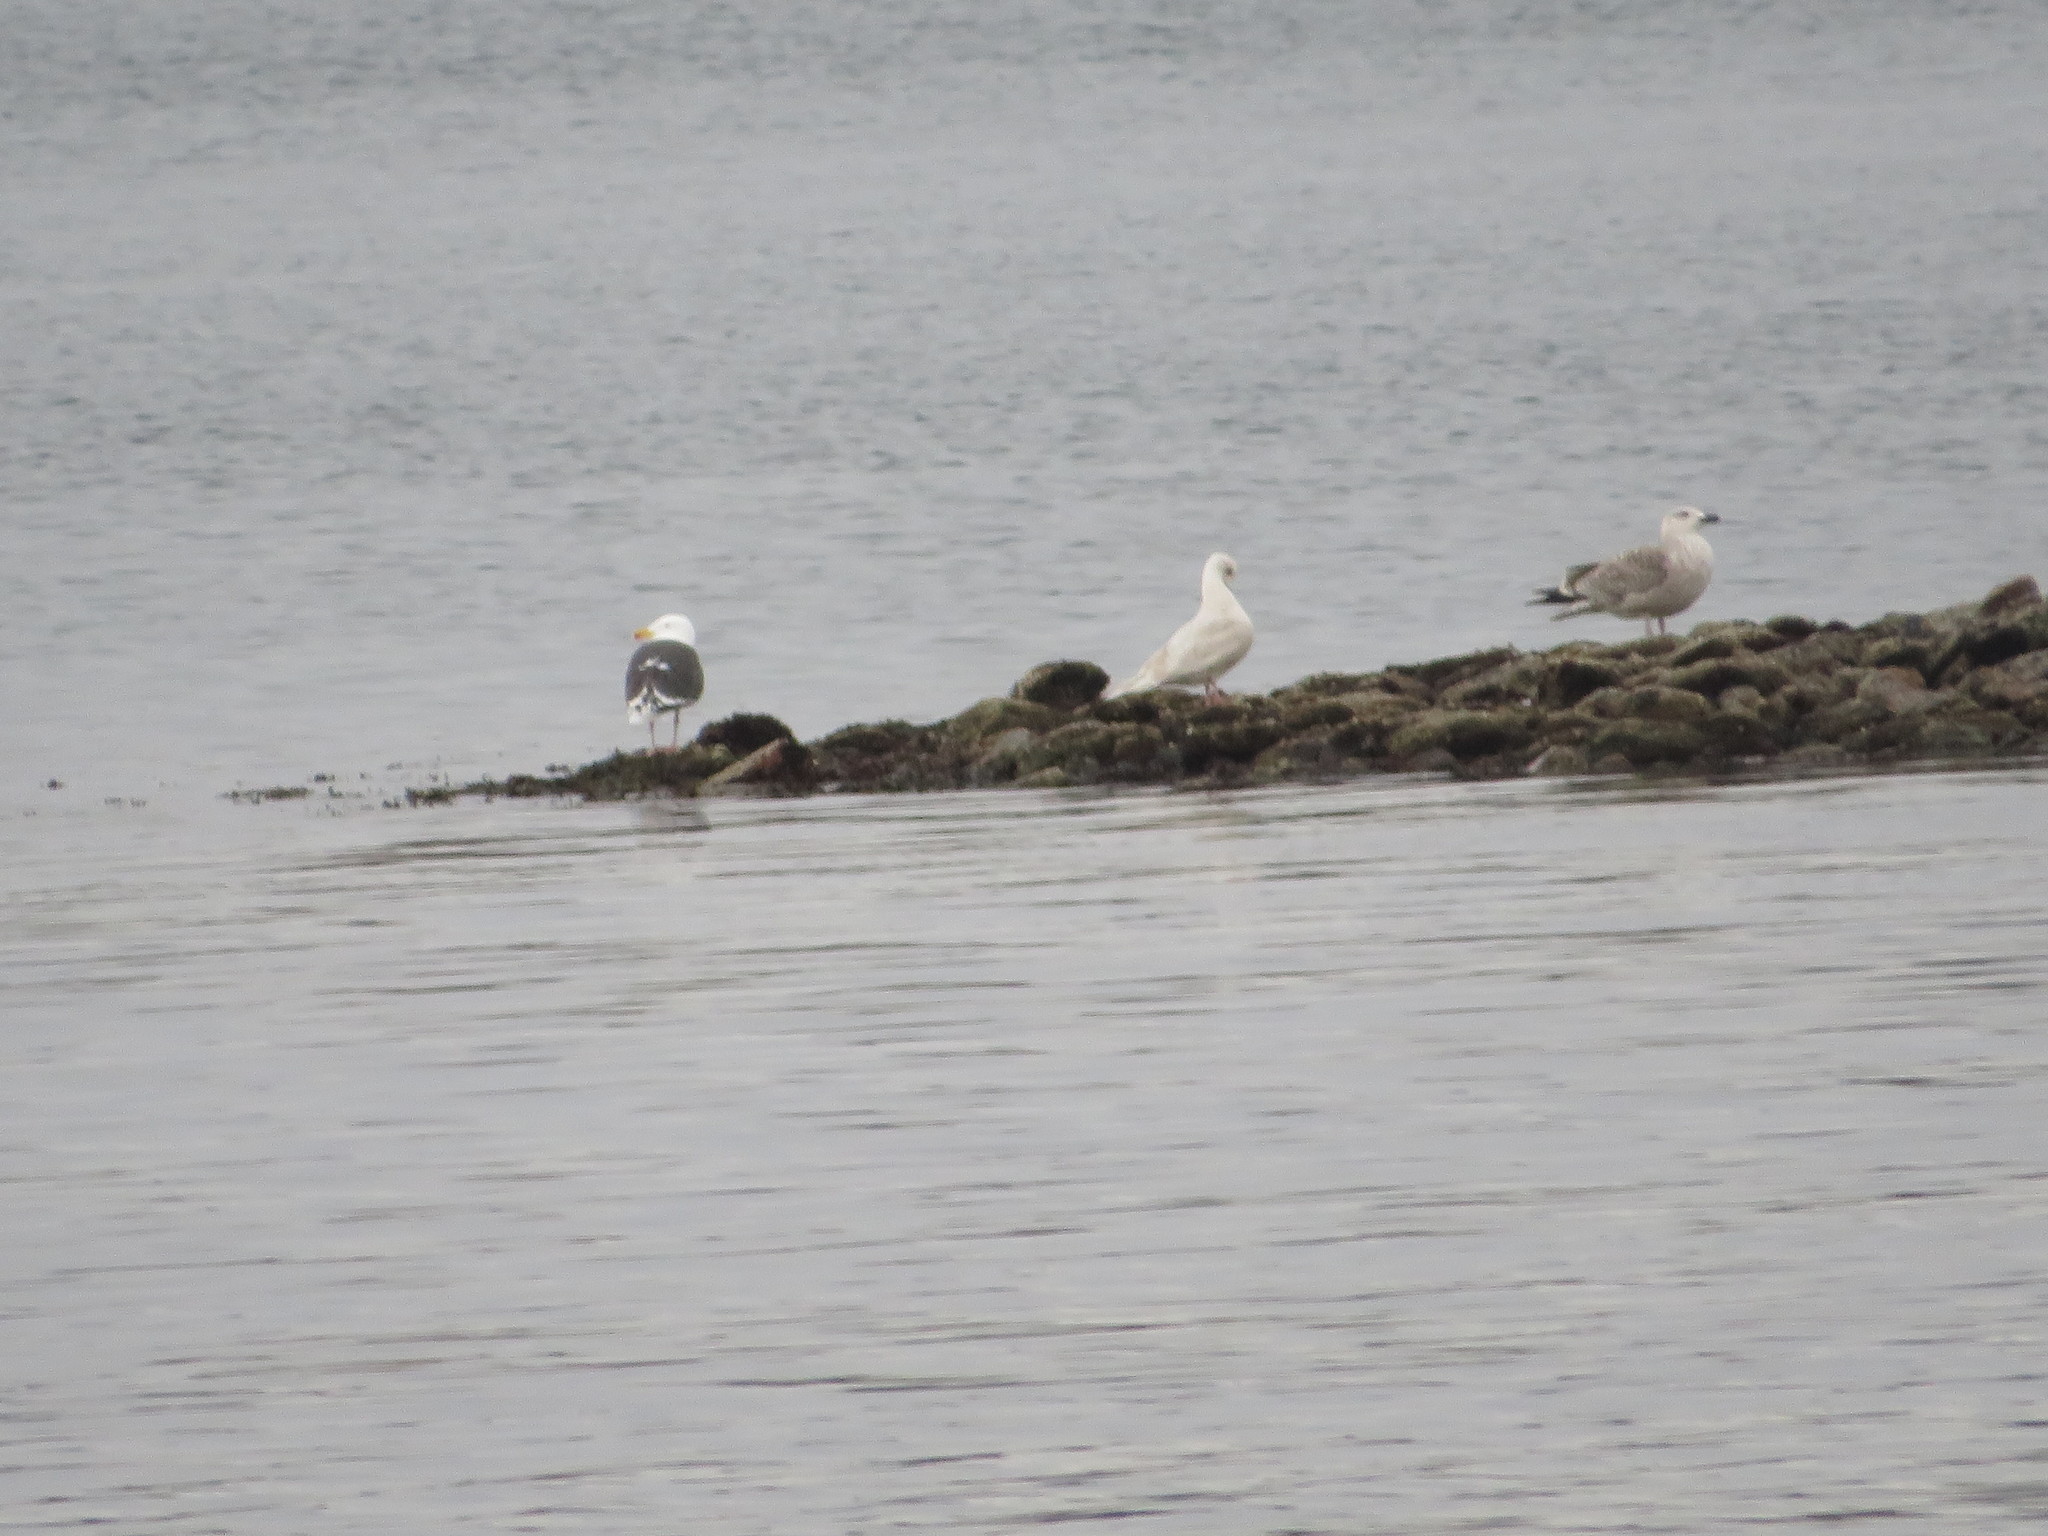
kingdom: Animalia
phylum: Chordata
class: Aves
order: Charadriiformes
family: Laridae
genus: Larus
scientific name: Larus marinus
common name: Great black-backed gull
